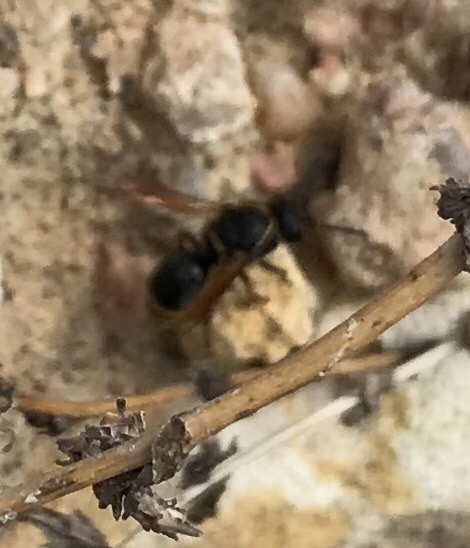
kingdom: Animalia
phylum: Arthropoda
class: Insecta
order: Hymenoptera
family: Eumenidae
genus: Pachodynerus
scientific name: Pachodynerus
